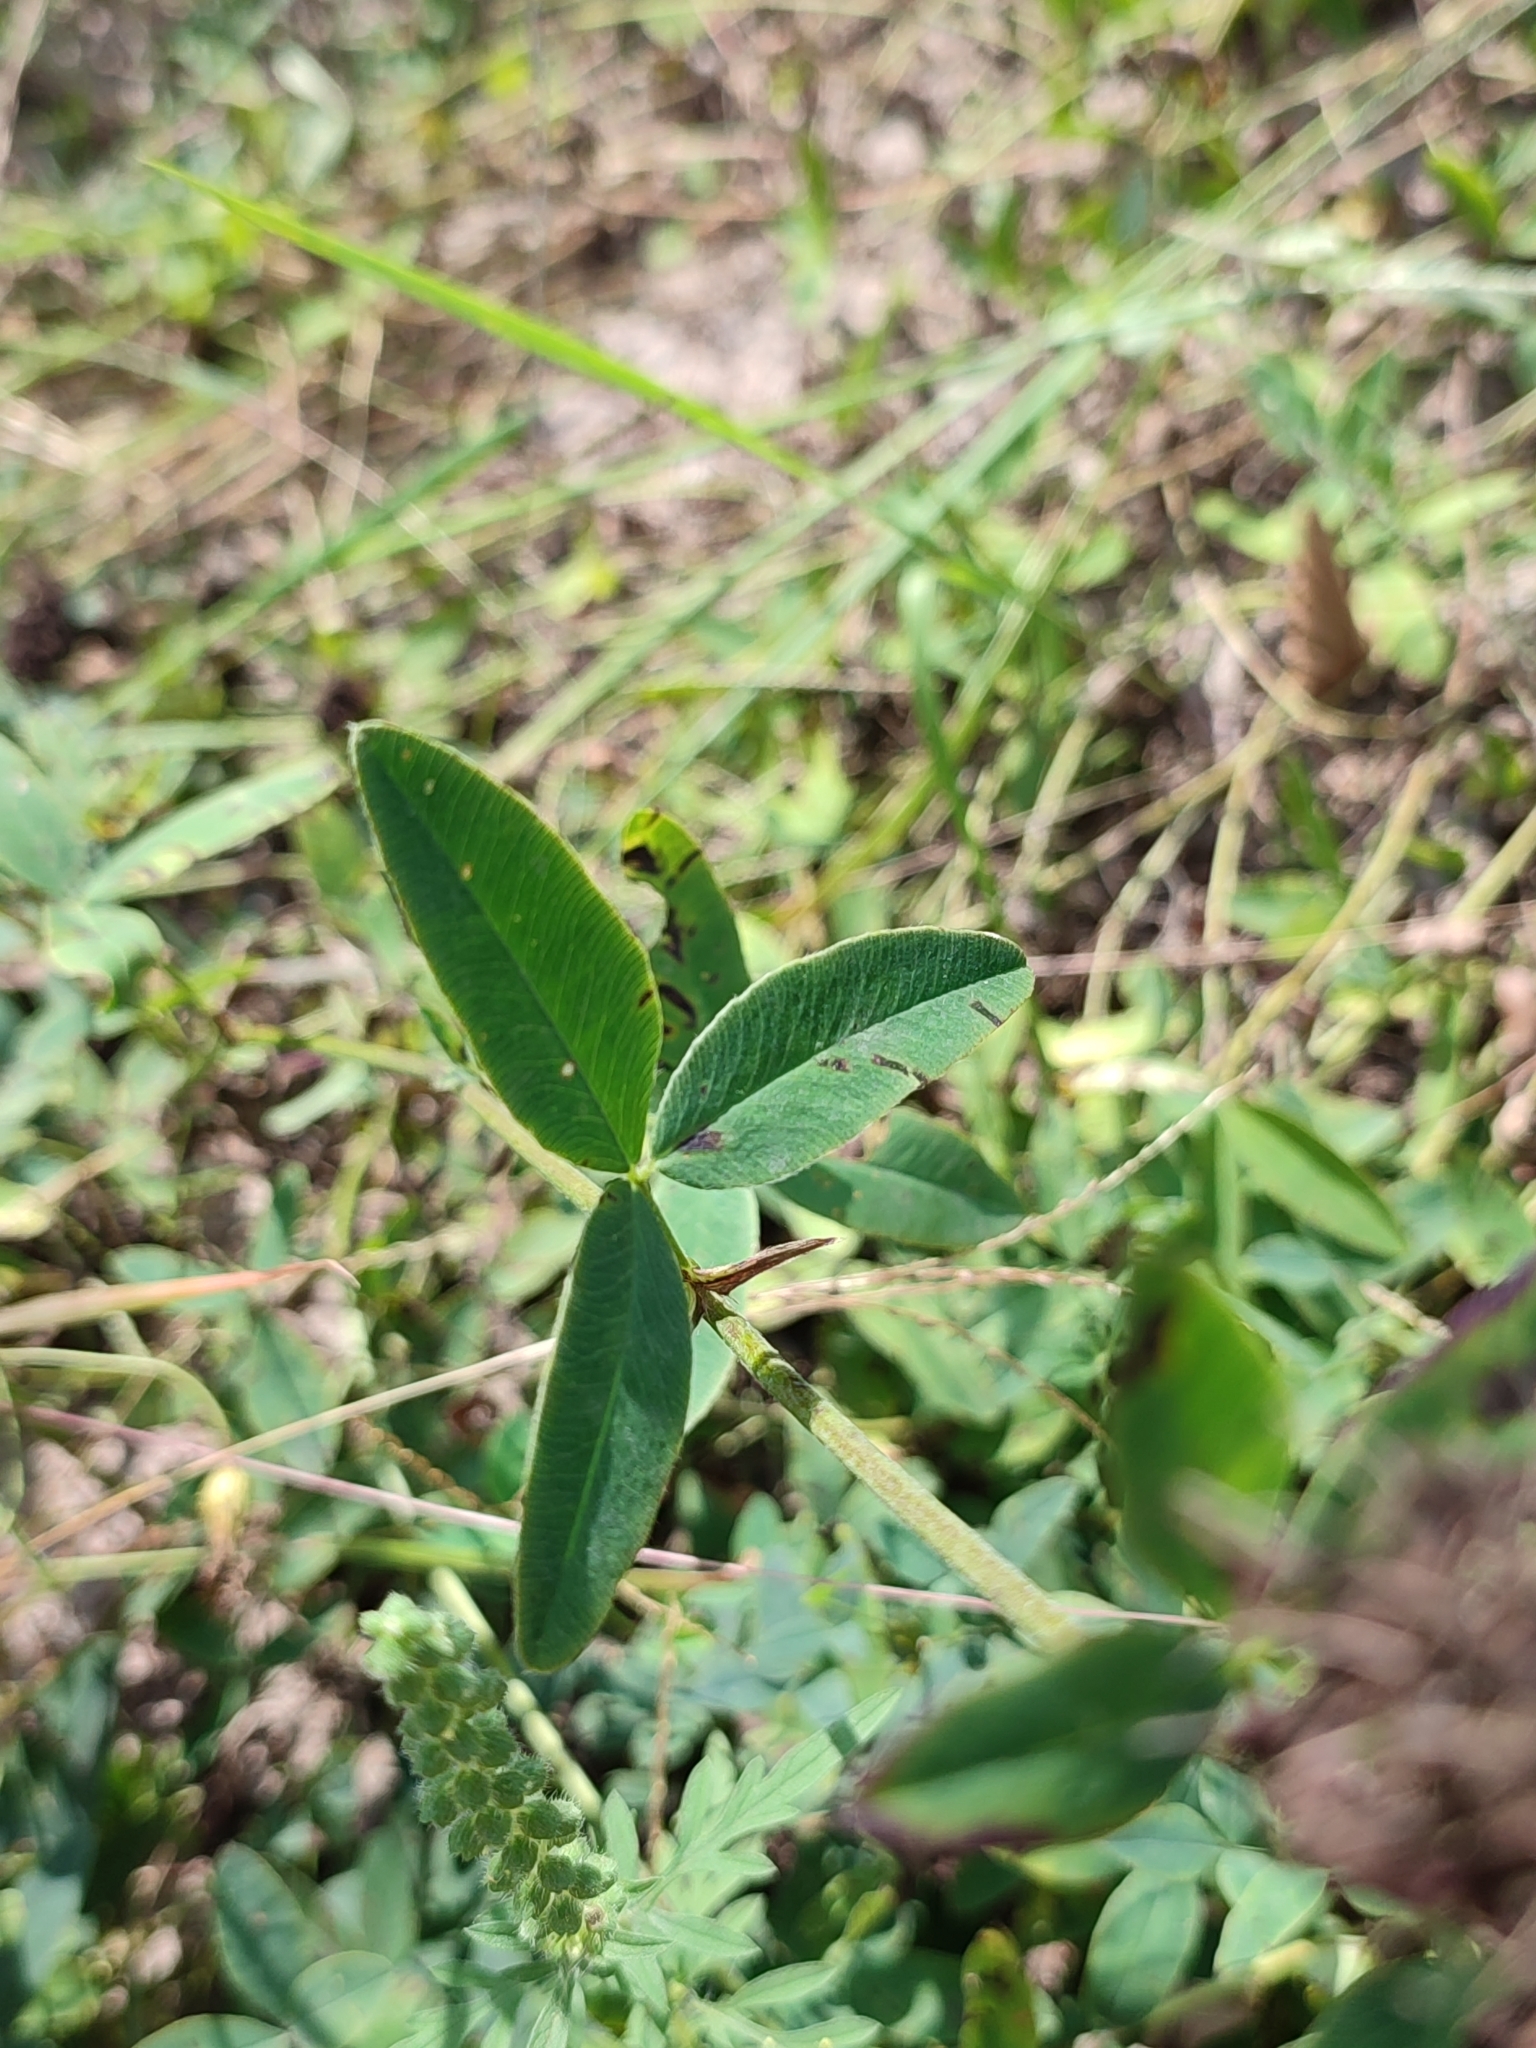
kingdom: Plantae
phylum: Tracheophyta
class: Magnoliopsida
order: Fabales
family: Fabaceae
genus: Trifolium
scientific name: Trifolium medium
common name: Zigzag clover
